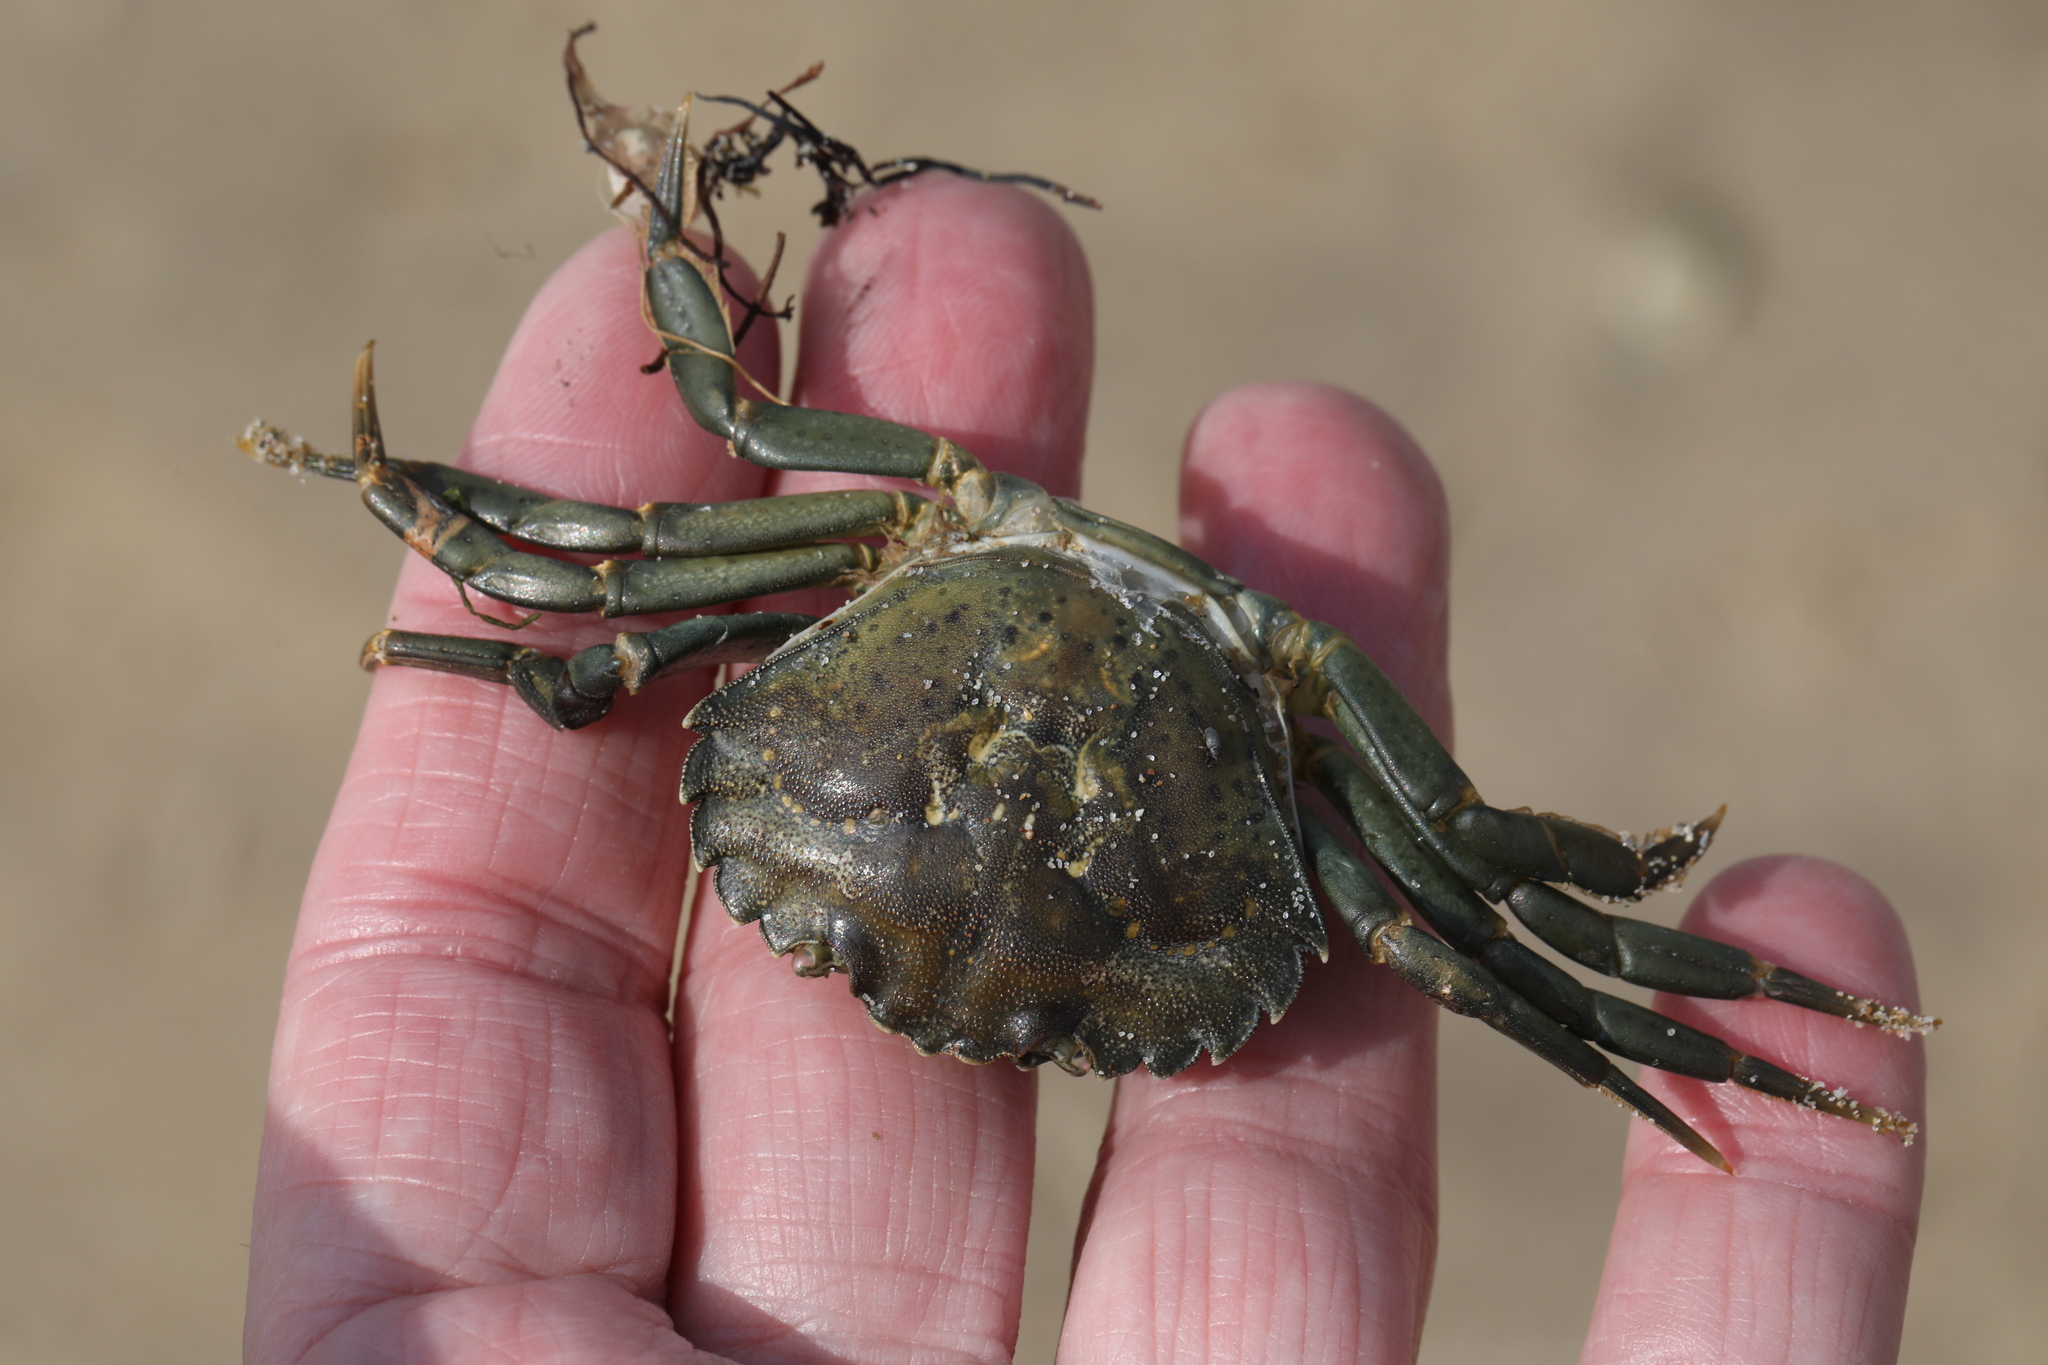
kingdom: Animalia
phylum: Arthropoda
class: Malacostraca
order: Decapoda
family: Carcinidae
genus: Carcinus
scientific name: Carcinus maenas
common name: European green crab
